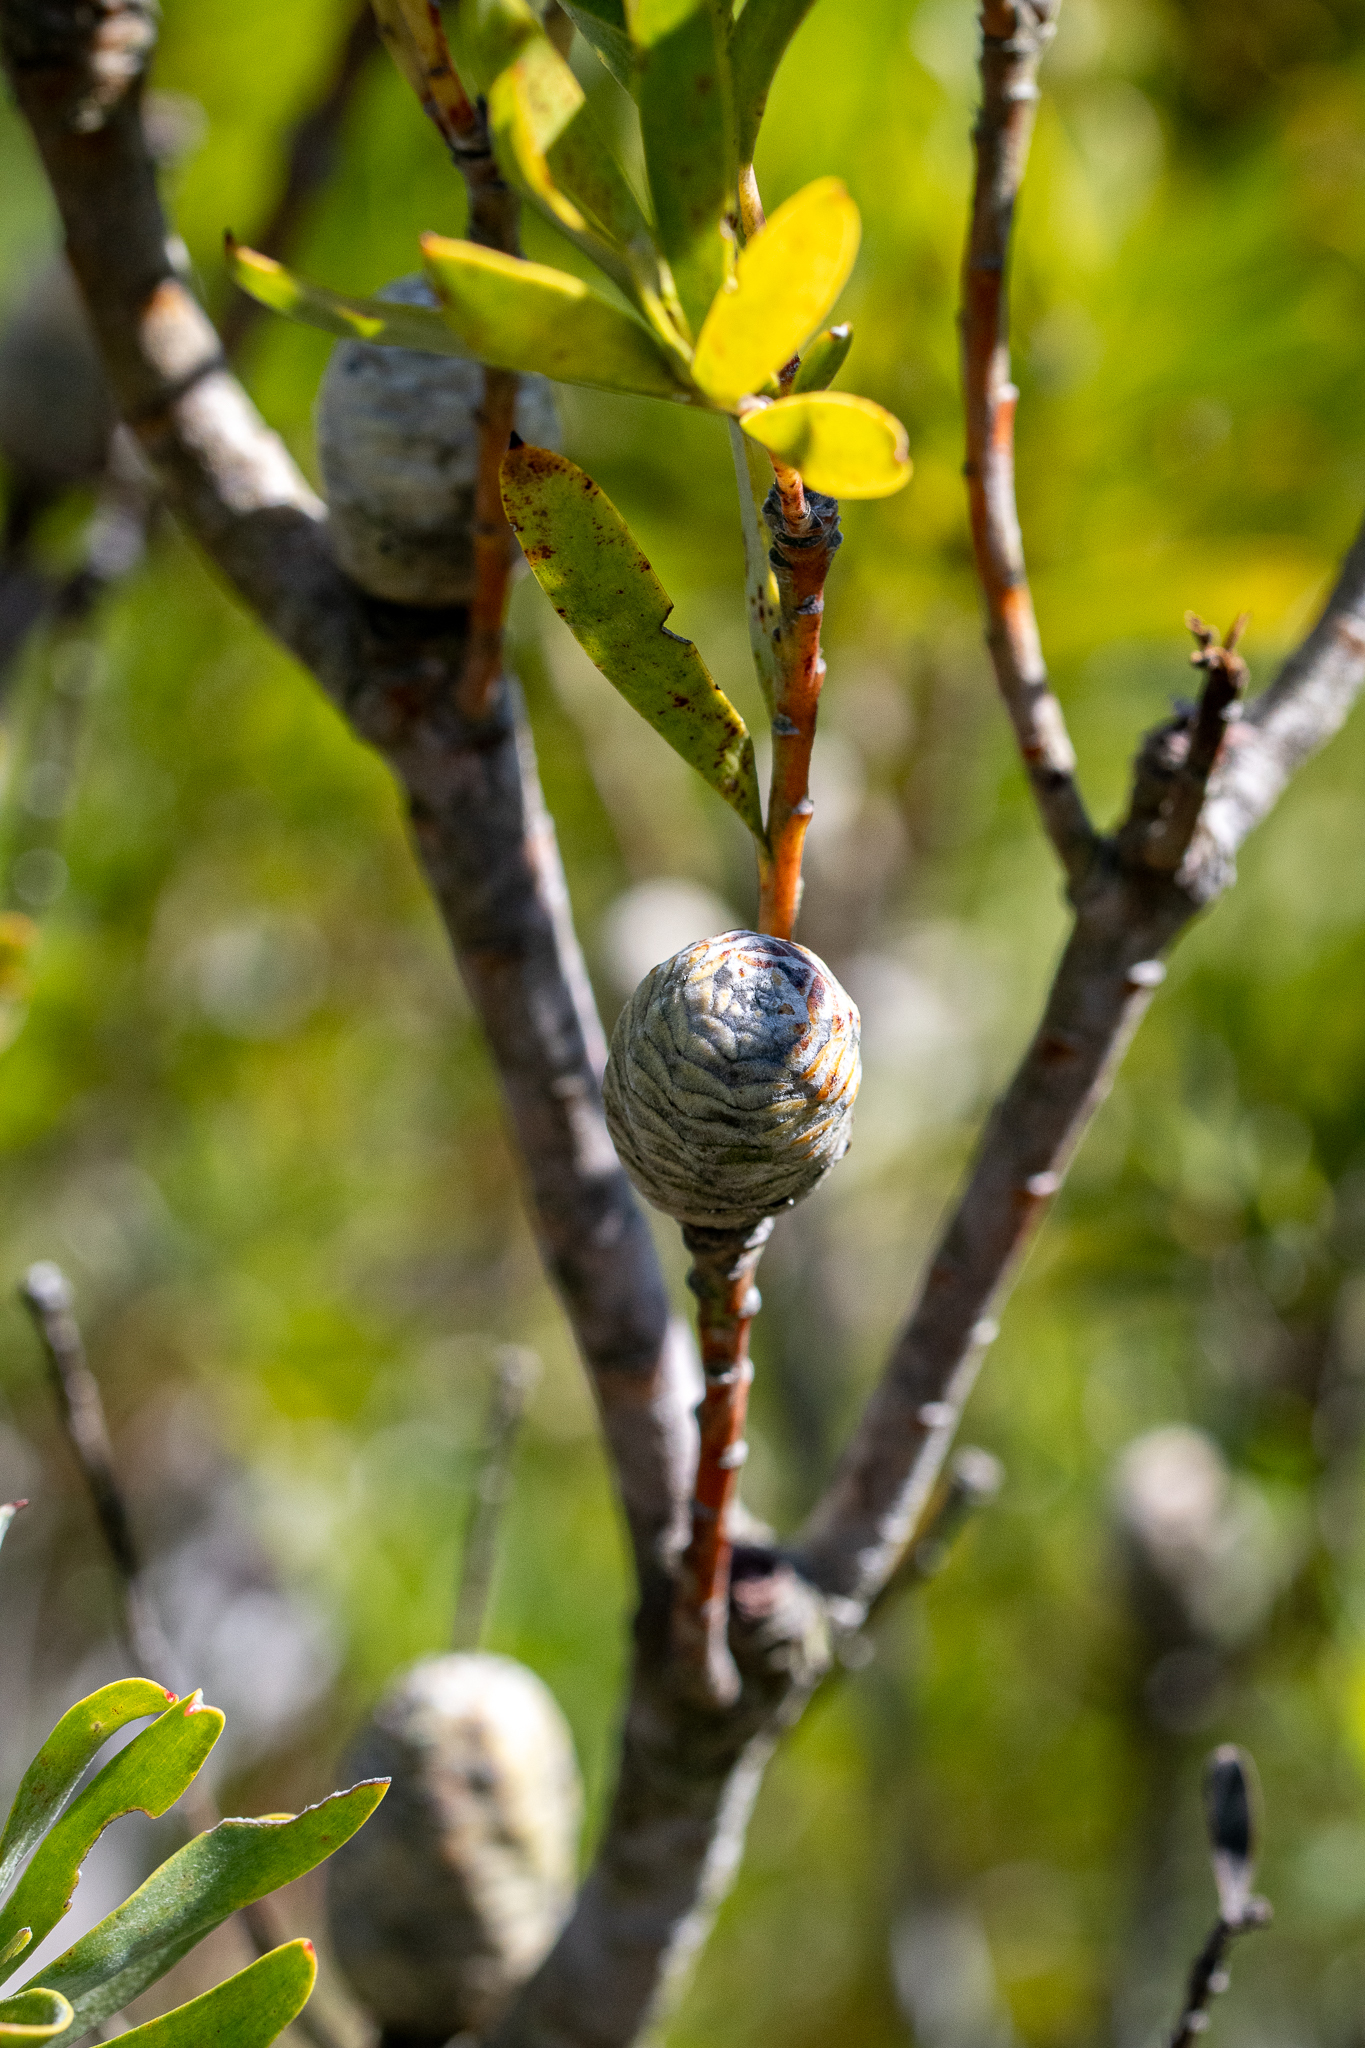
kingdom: Plantae
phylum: Tracheophyta
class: Magnoliopsida
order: Proteales
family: Proteaceae
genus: Leucadendron
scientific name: Leucadendron meridianum
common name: Limestone conebush
